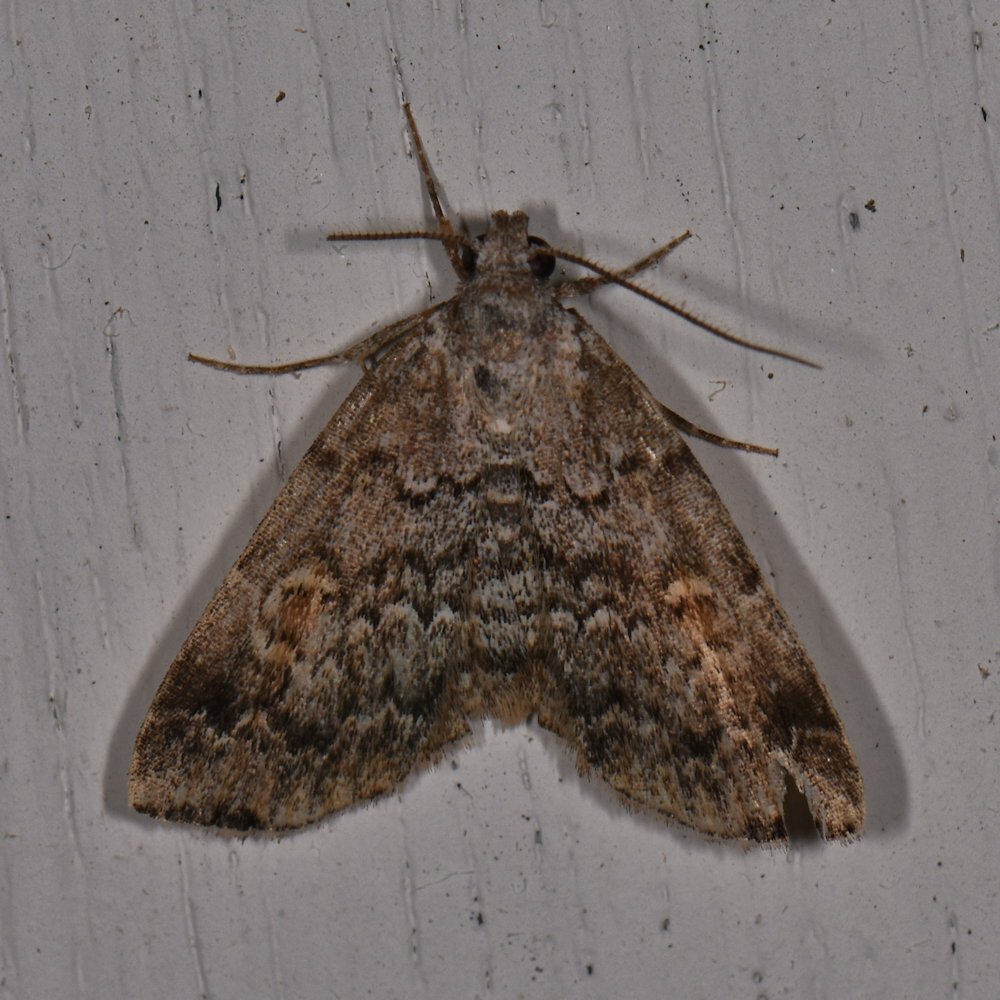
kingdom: Animalia
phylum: Arthropoda
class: Insecta
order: Lepidoptera
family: Erebidae
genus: Idia
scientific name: Idia americalis
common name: American idia moth
